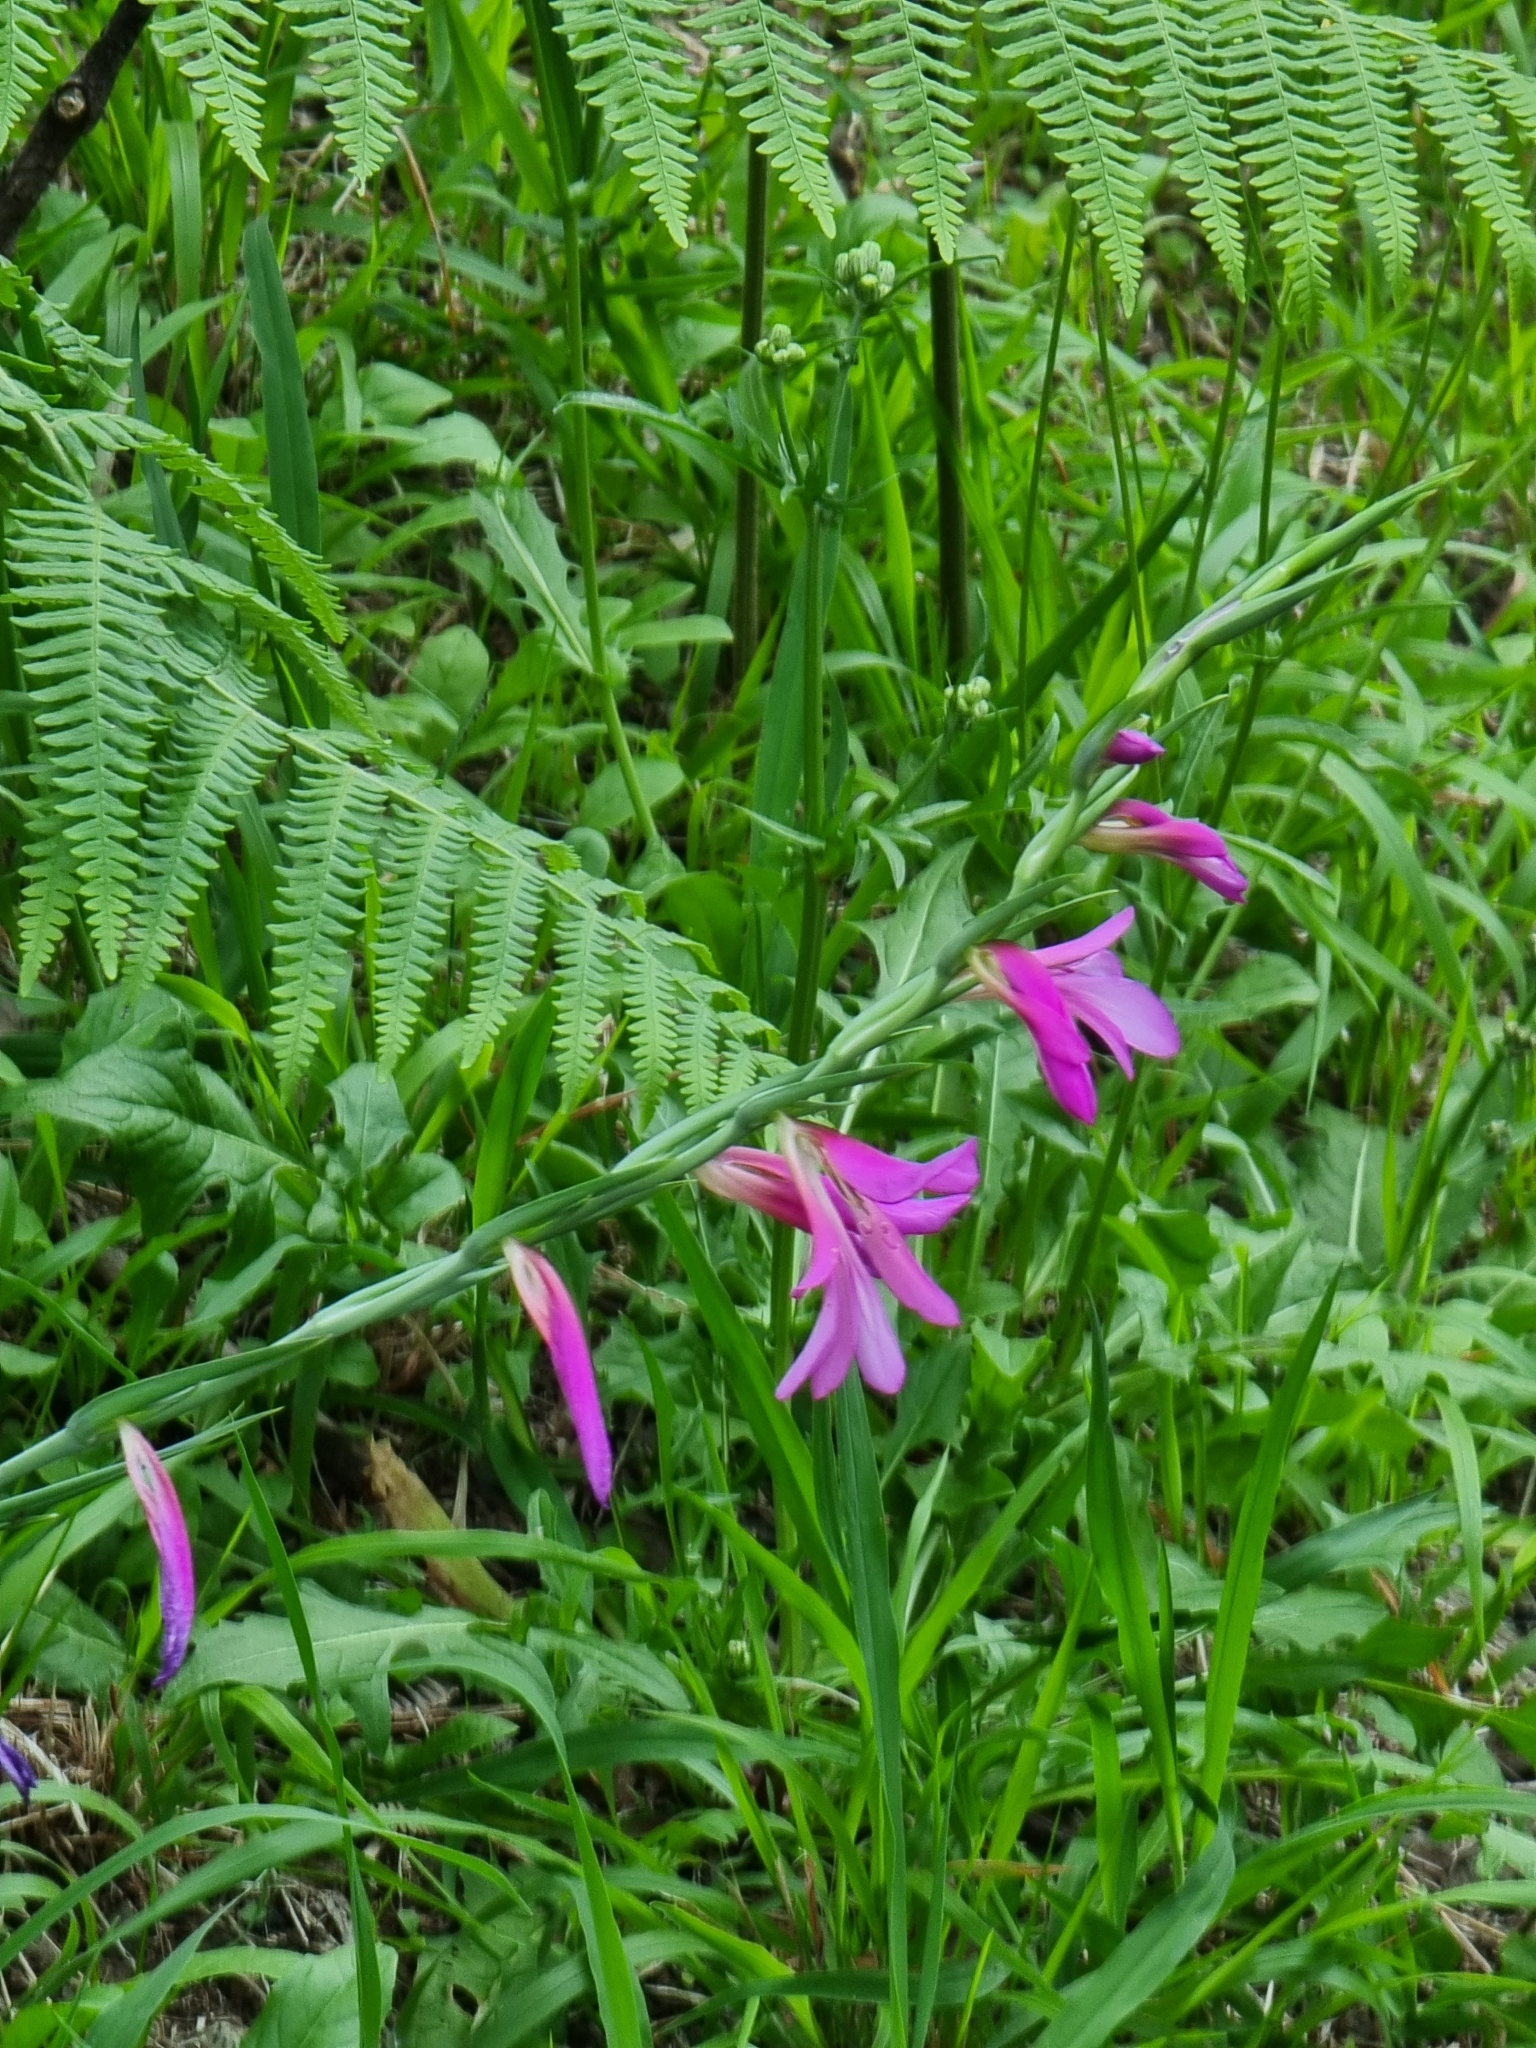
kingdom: Plantae
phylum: Tracheophyta
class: Liliopsida
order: Asparagales
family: Iridaceae
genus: Gladiolus
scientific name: Gladiolus italicus
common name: Field gladiolus
